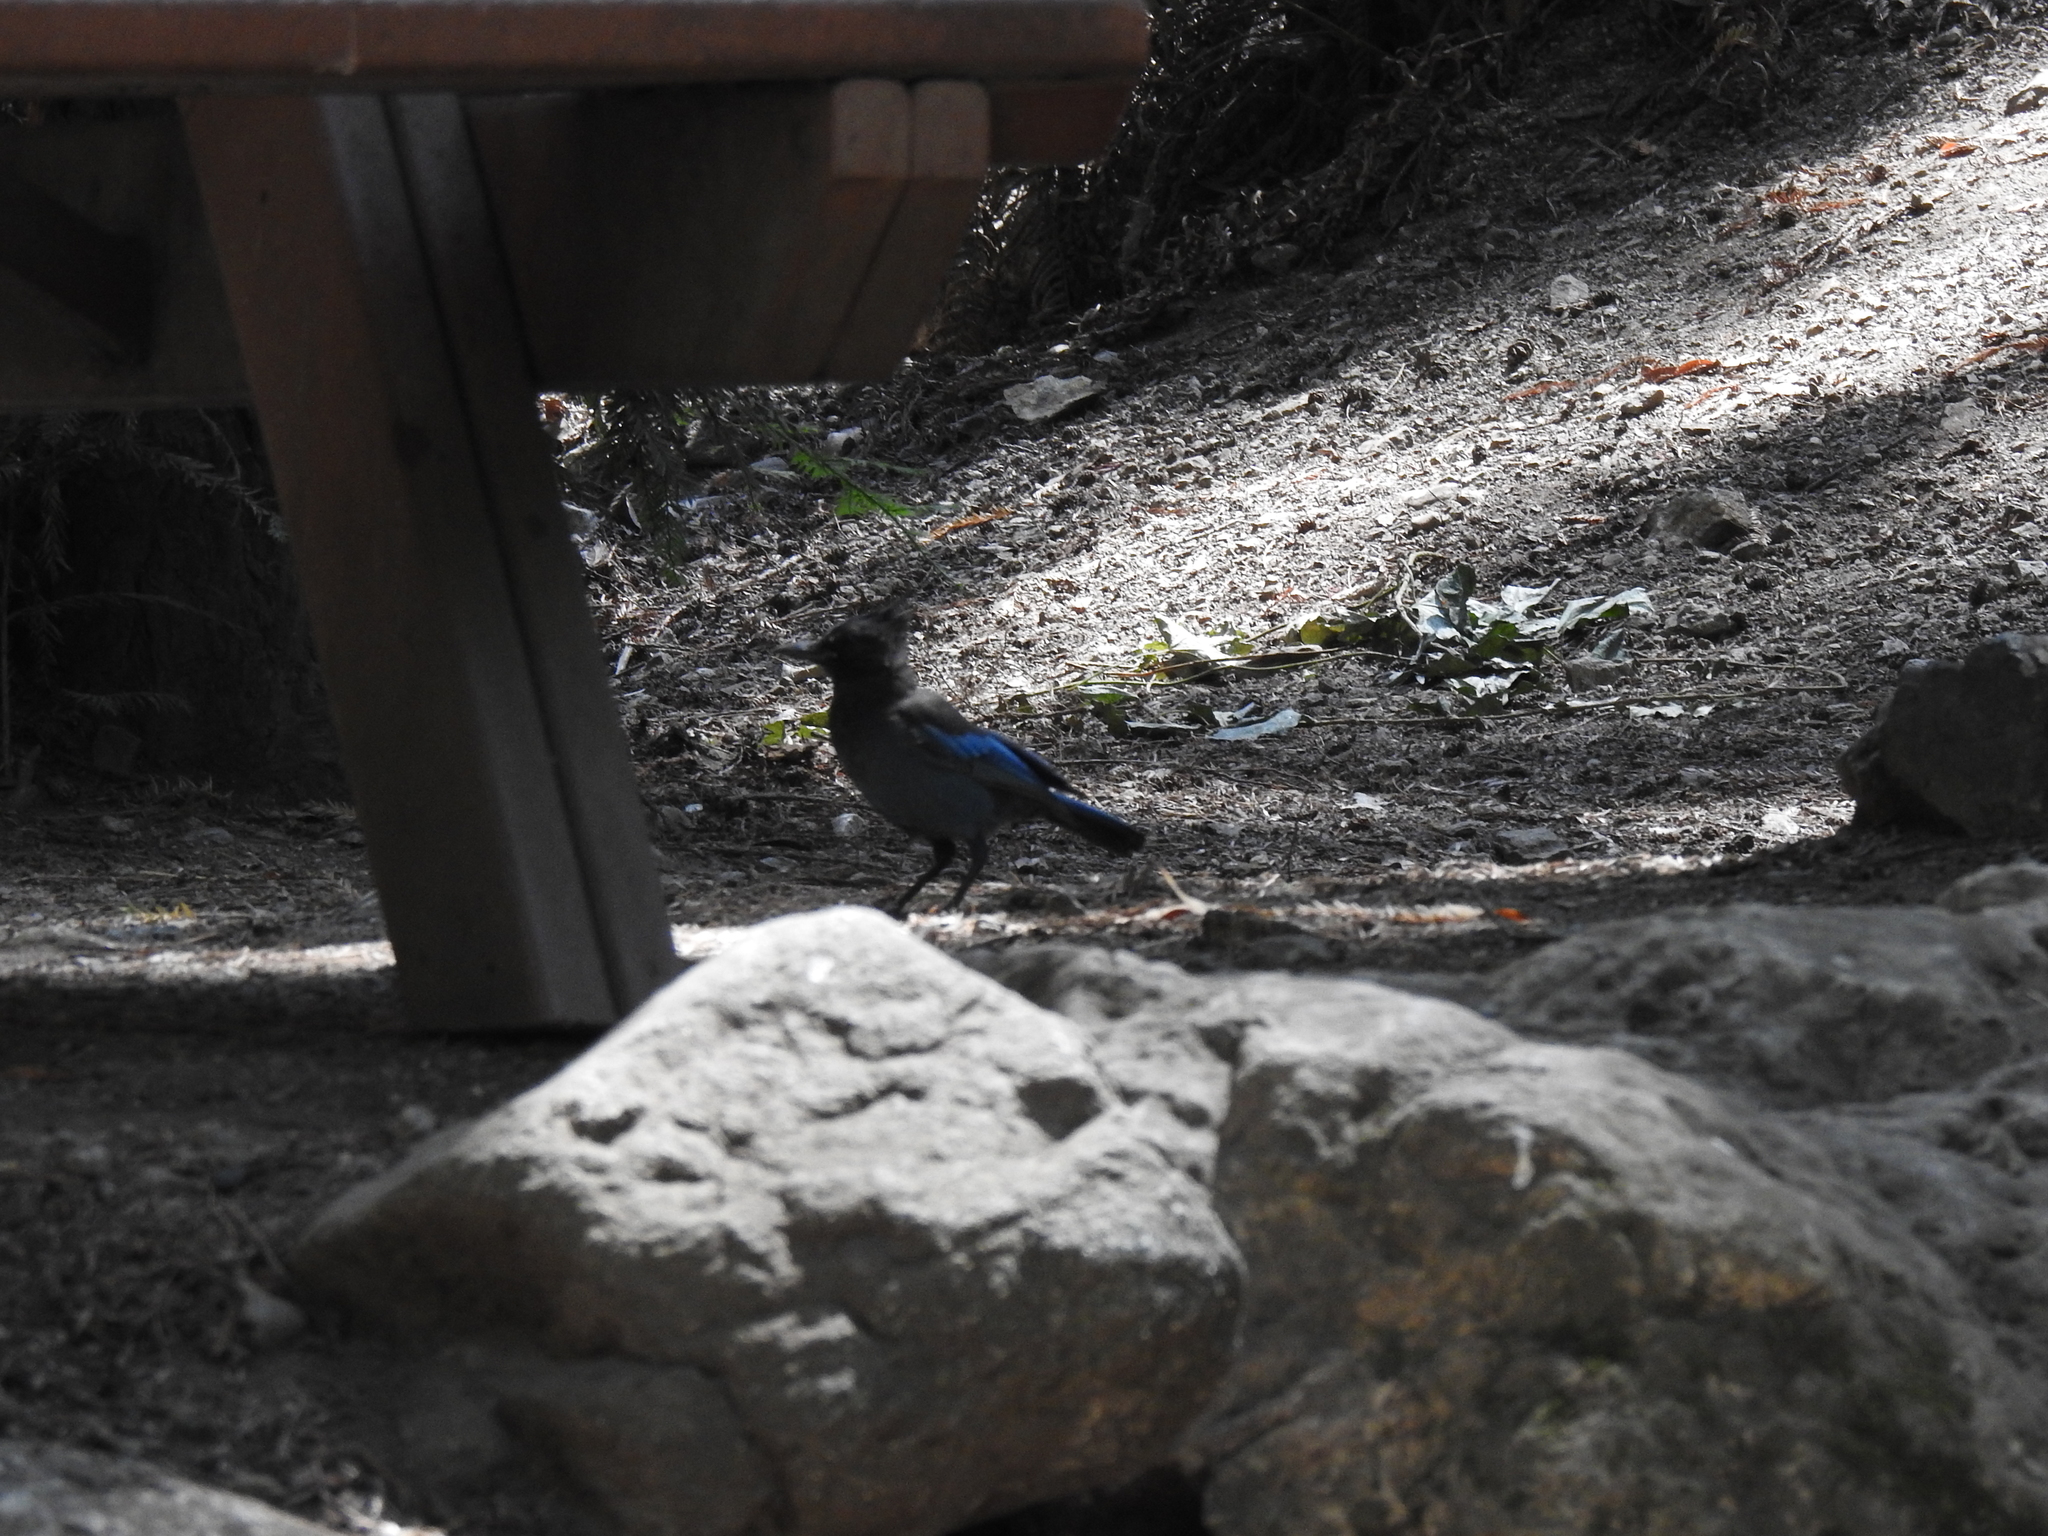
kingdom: Animalia
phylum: Chordata
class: Aves
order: Passeriformes
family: Corvidae
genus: Cyanocitta
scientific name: Cyanocitta stelleri
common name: Steller's jay
